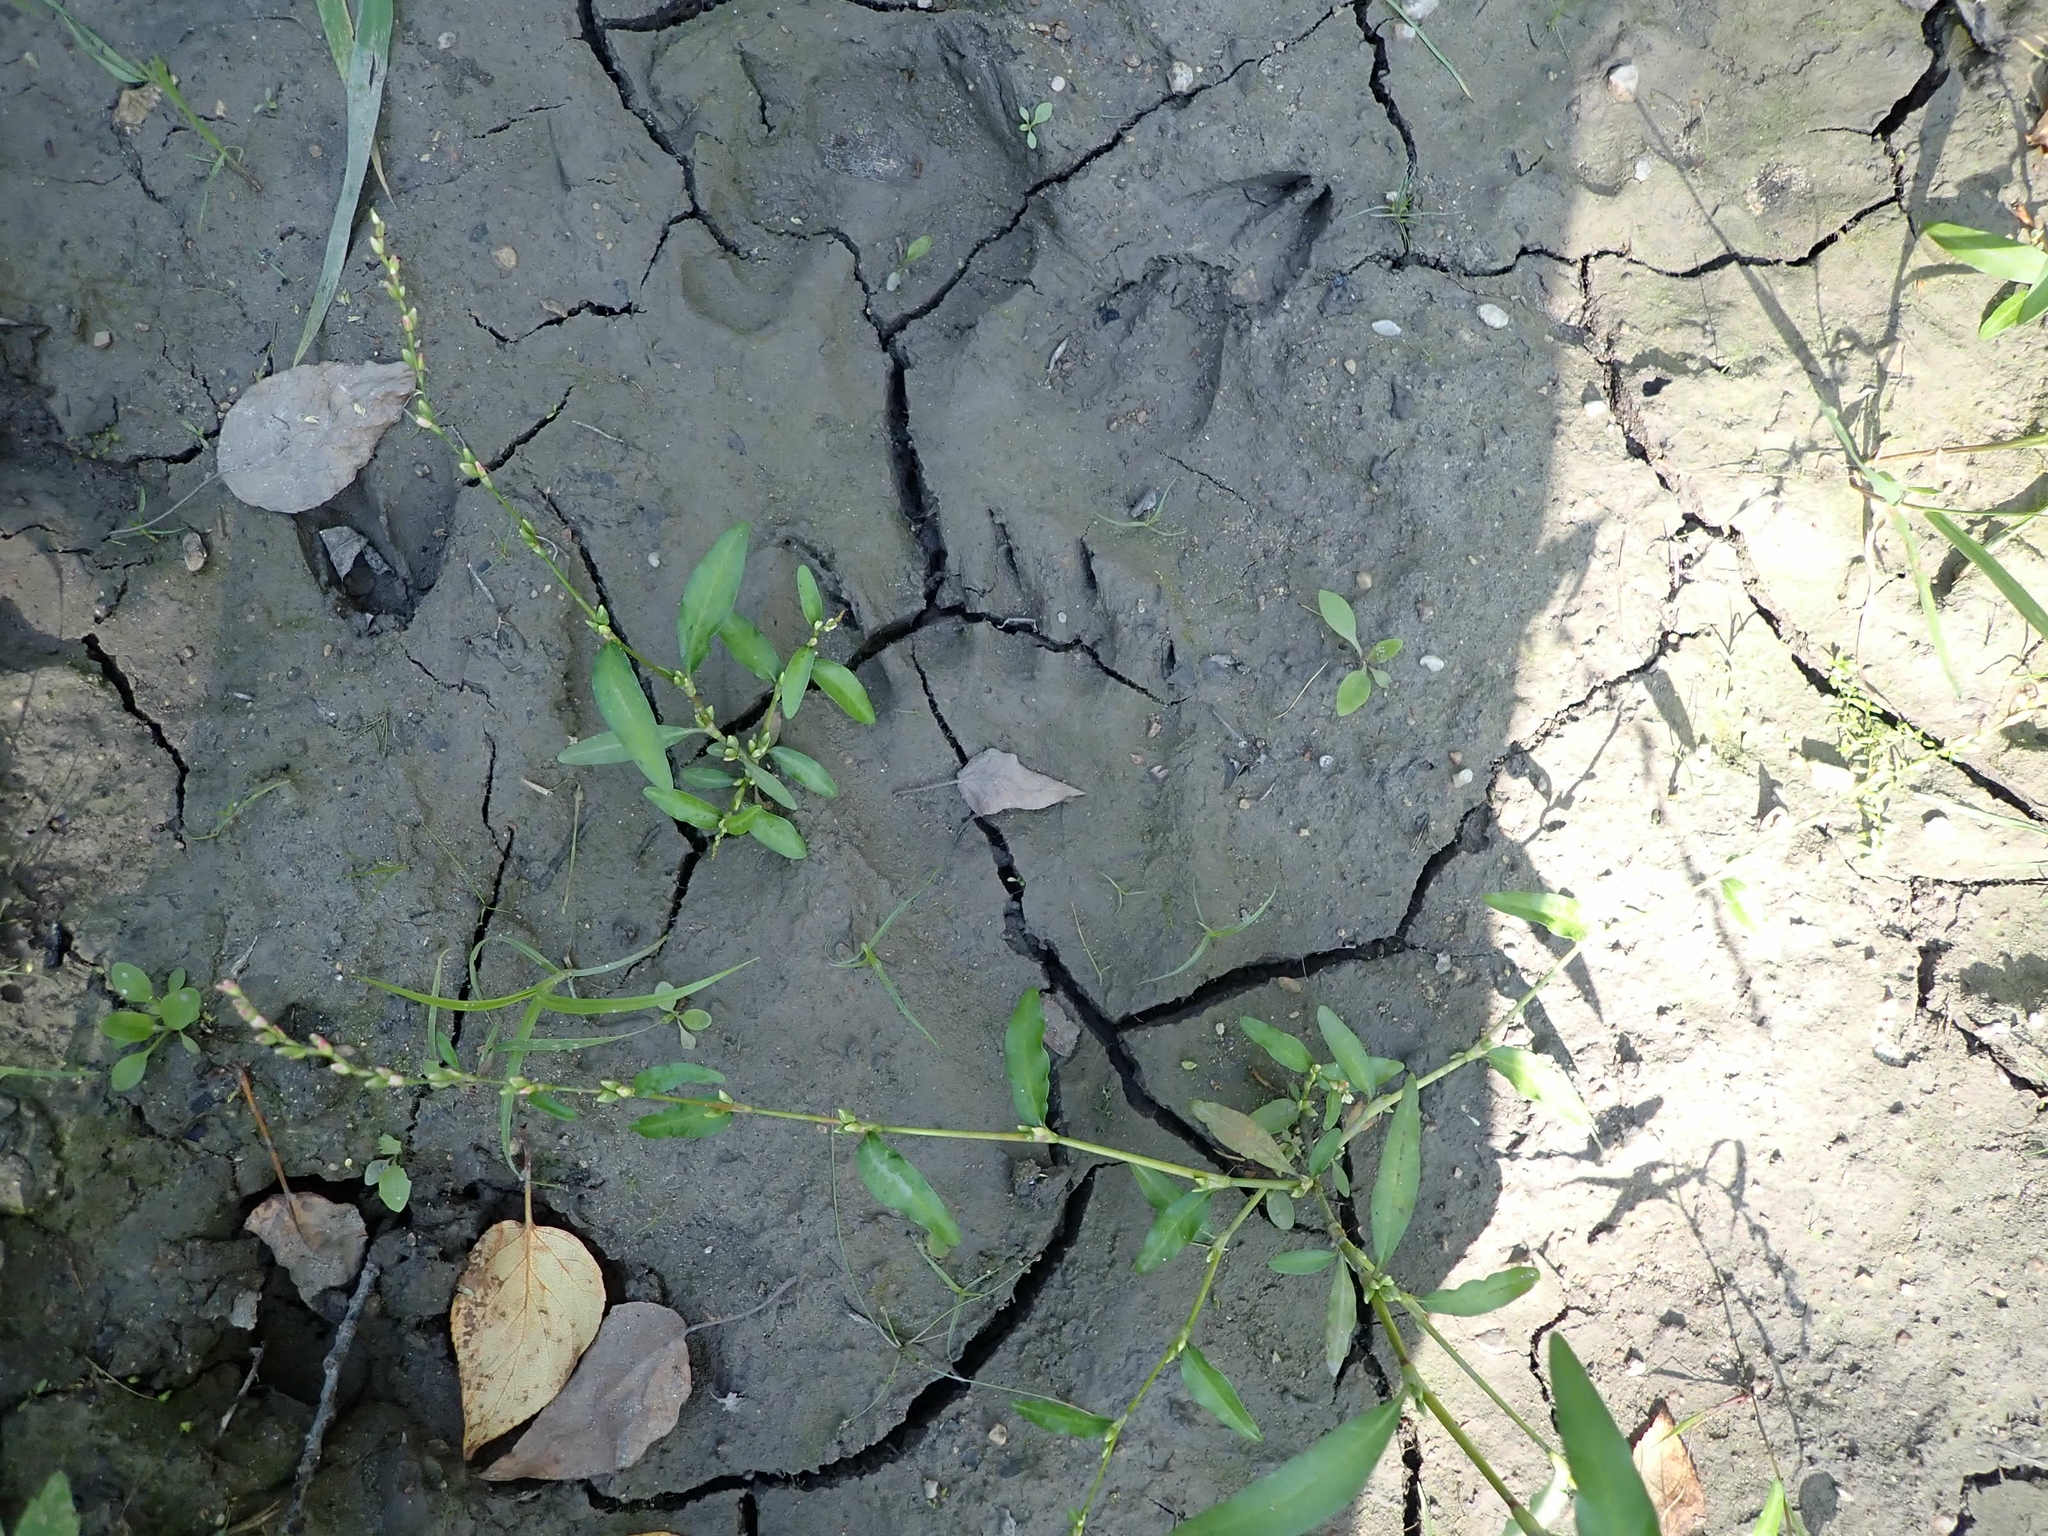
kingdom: Animalia
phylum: Chordata
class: Mammalia
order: Carnivora
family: Ursidae
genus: Ursus
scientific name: Ursus americanus
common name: American black bear
